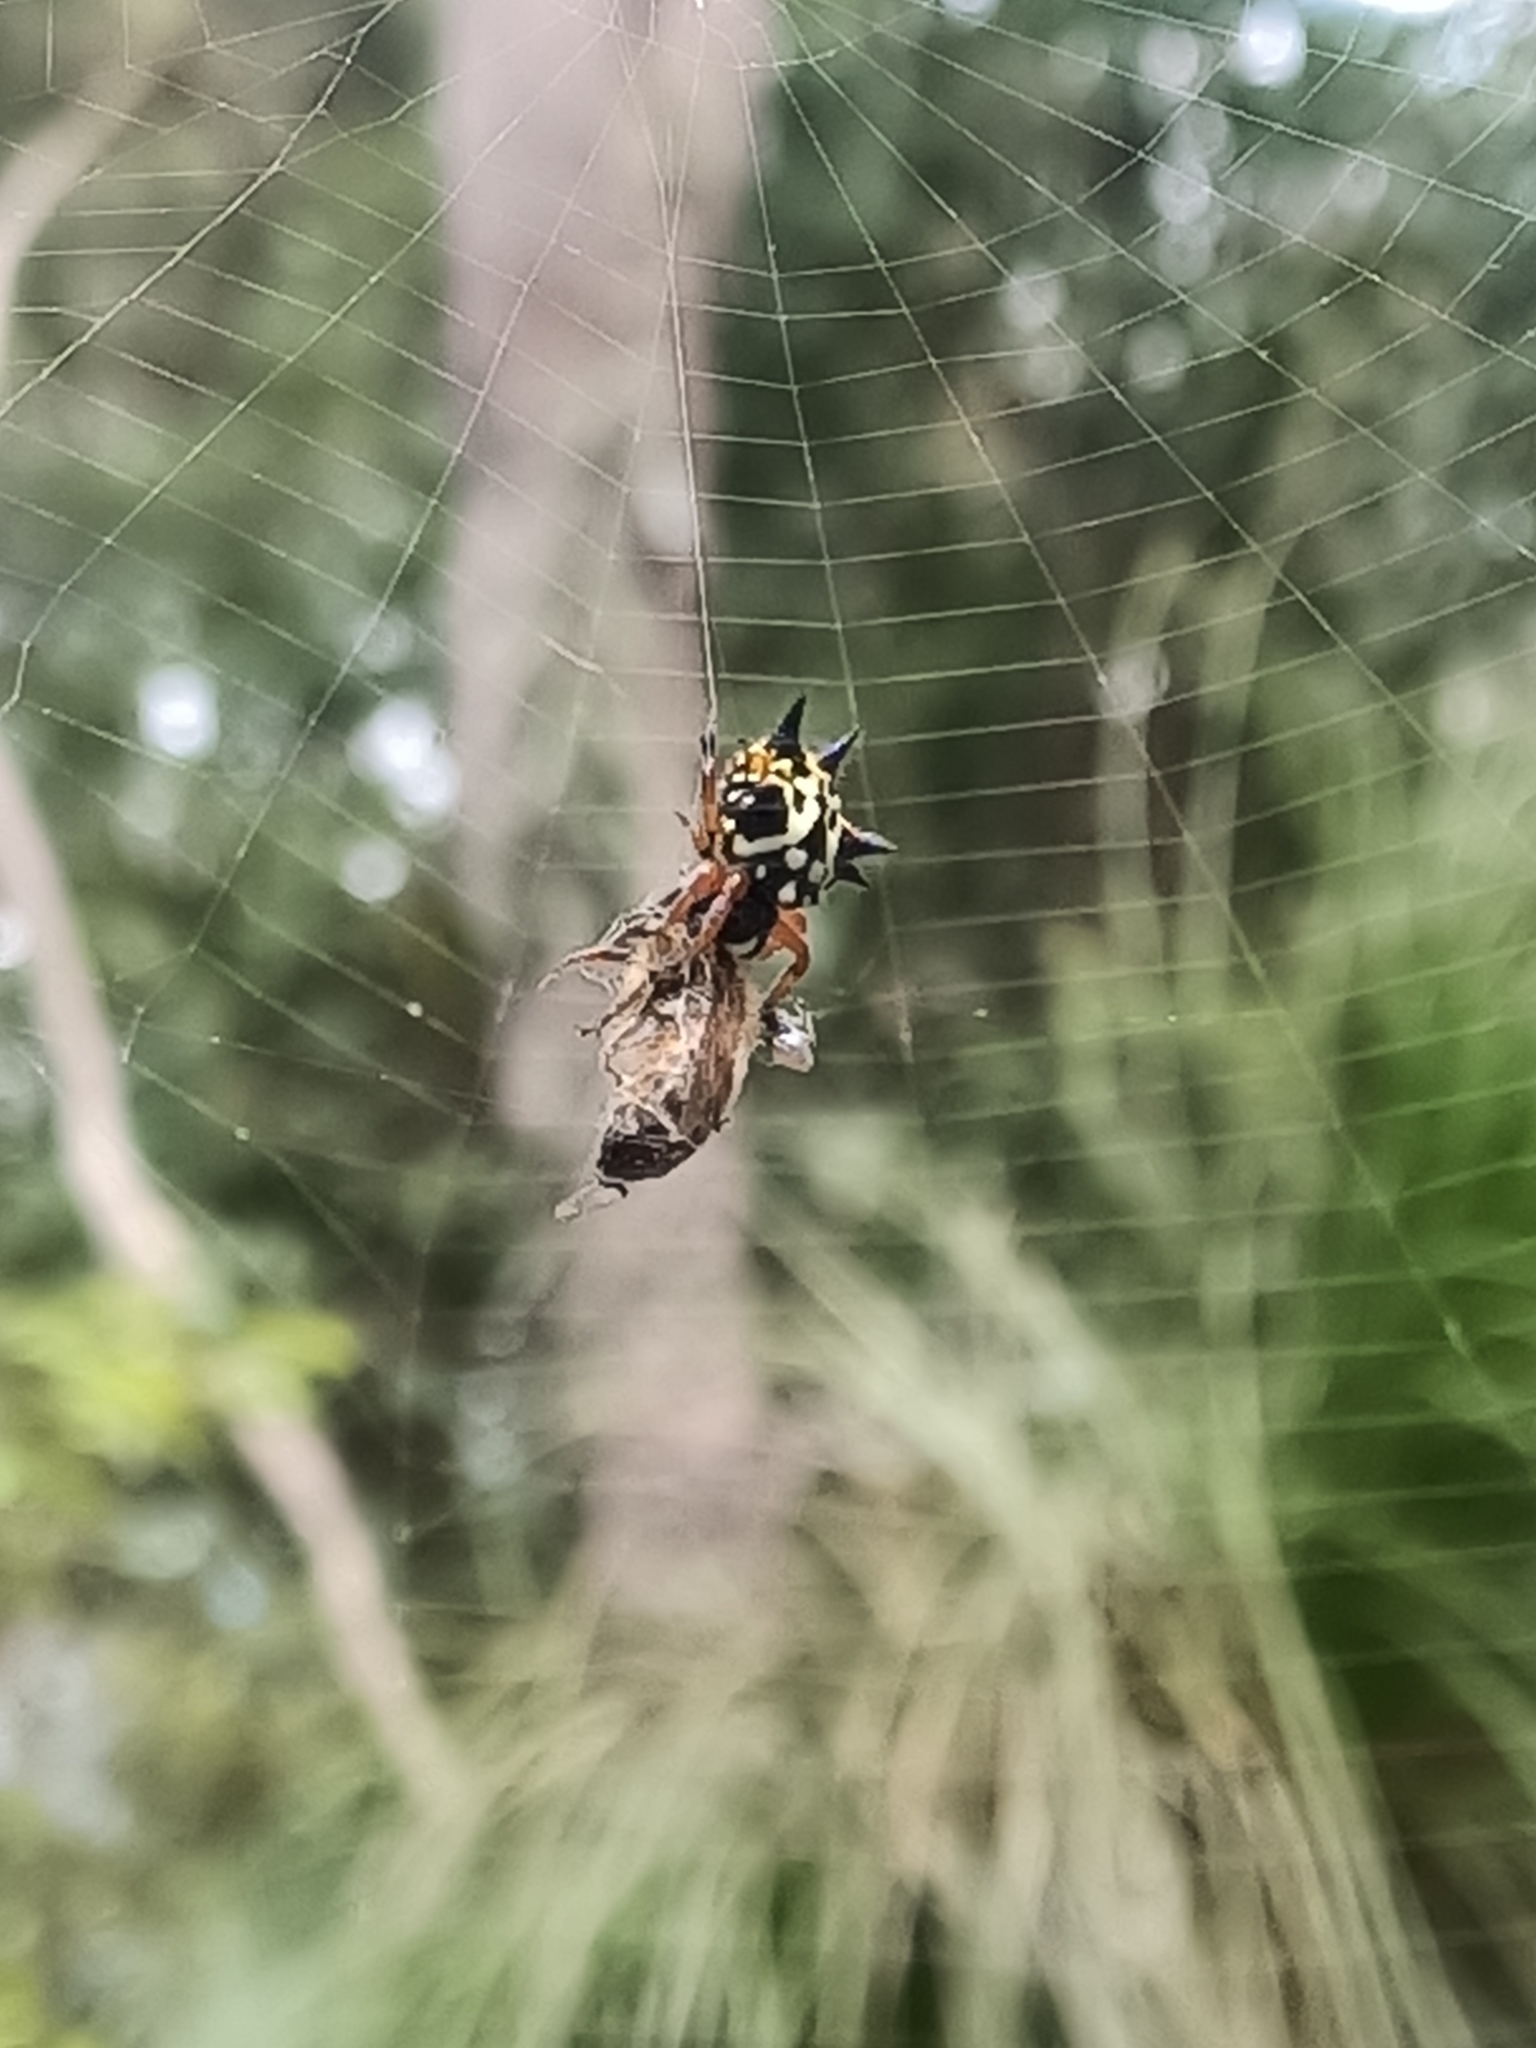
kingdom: Animalia
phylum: Arthropoda
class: Arachnida
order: Araneae
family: Araneidae
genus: Austracantha
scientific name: Austracantha minax
